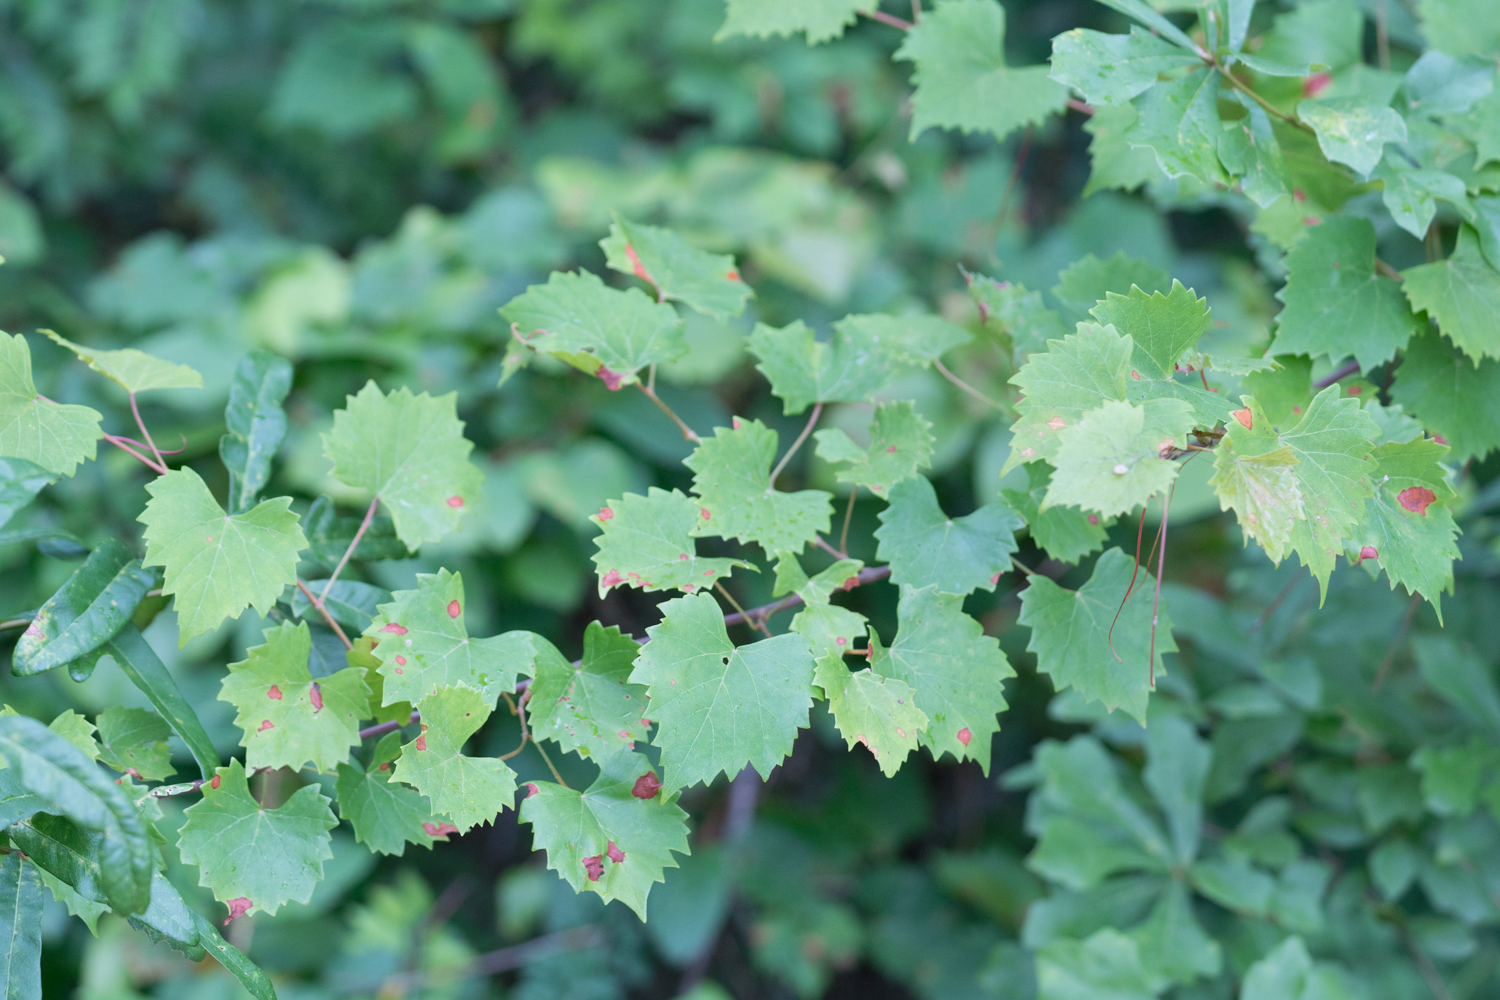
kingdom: Plantae
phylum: Tracheophyta
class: Magnoliopsida
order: Vitales
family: Vitaceae
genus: Vitis
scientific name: Vitis rotundifolia
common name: Muscadine grape
